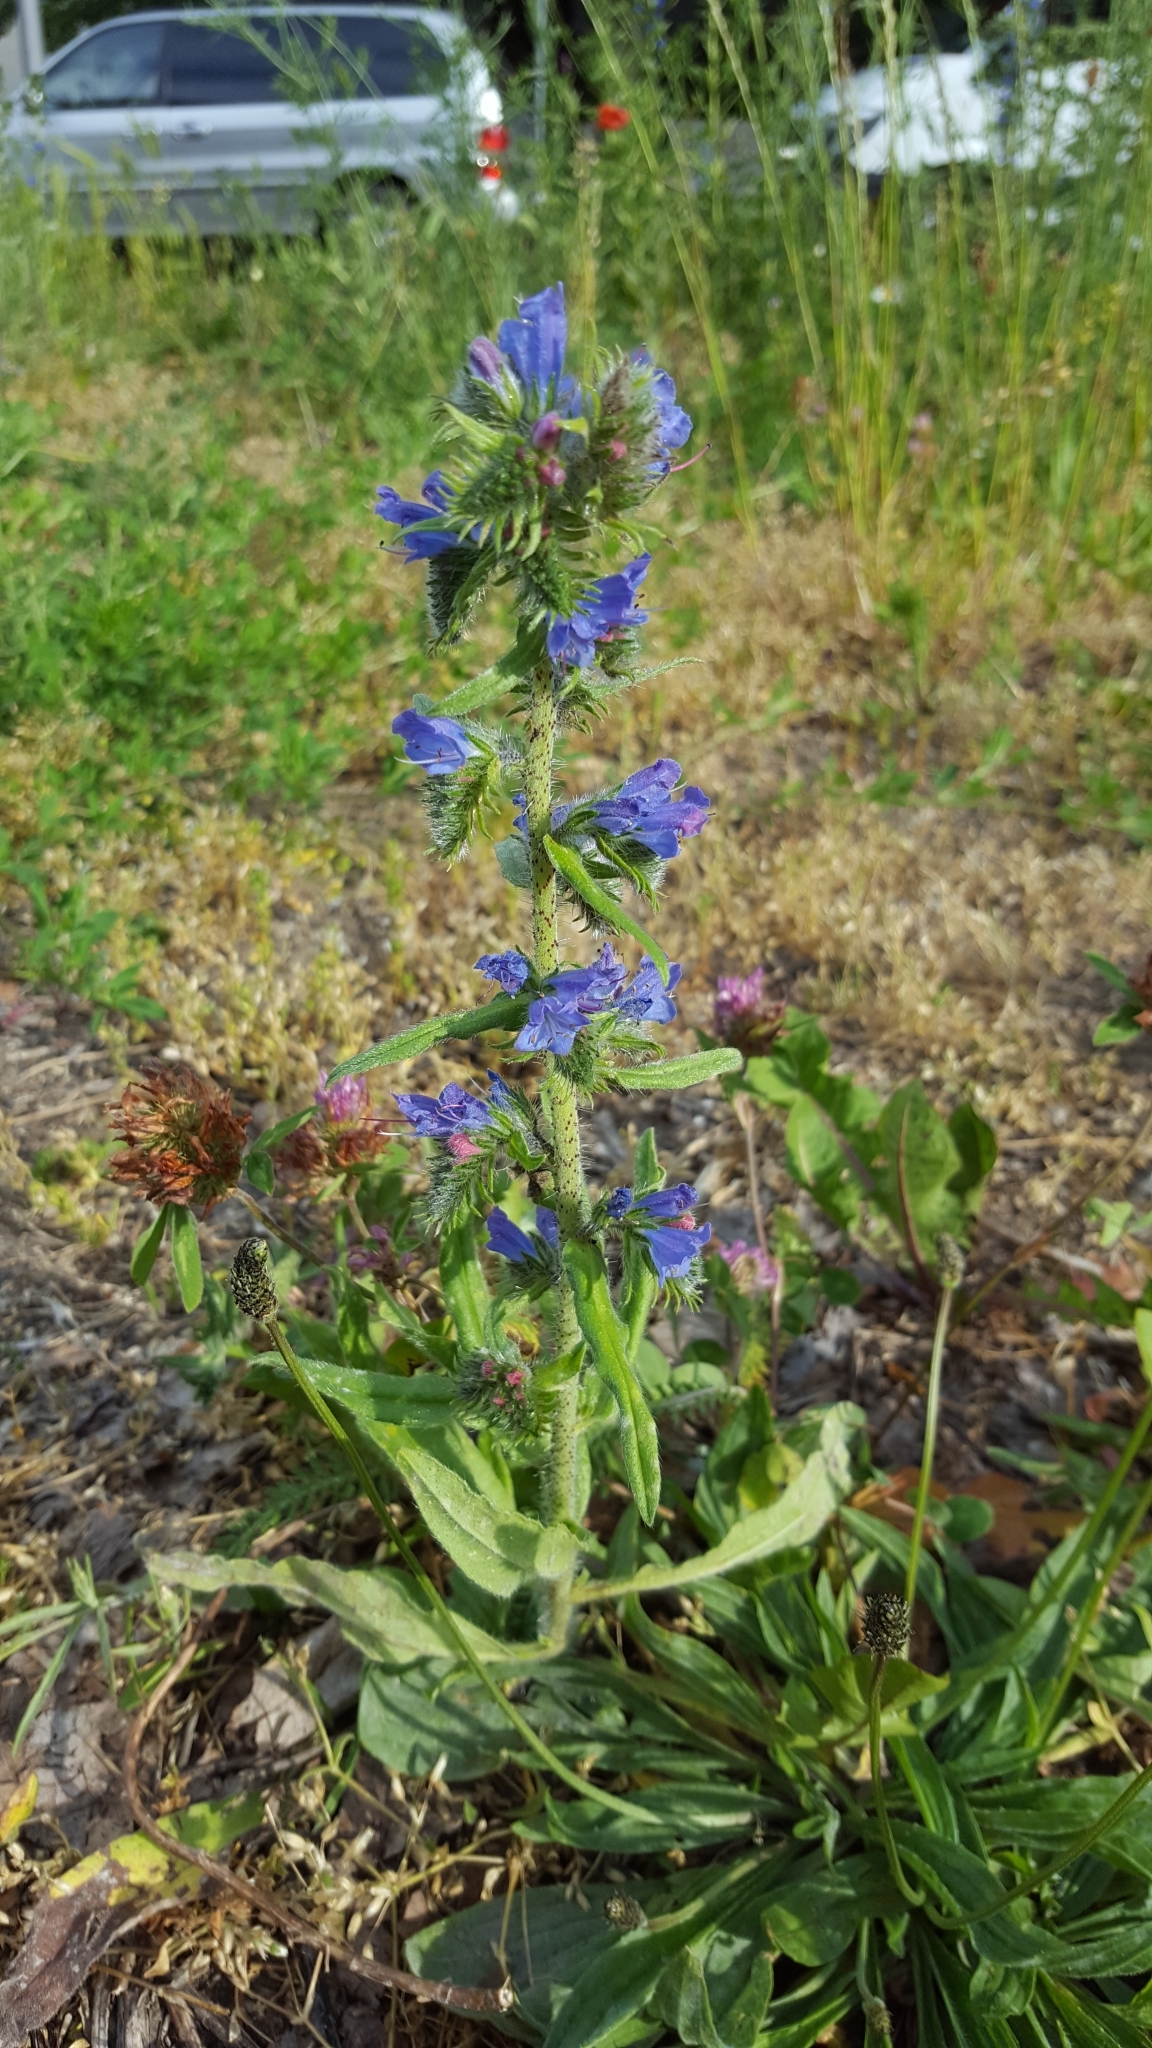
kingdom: Plantae
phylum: Tracheophyta
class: Magnoliopsida
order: Boraginales
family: Boraginaceae
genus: Echium
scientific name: Echium vulgare
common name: Common viper's bugloss
